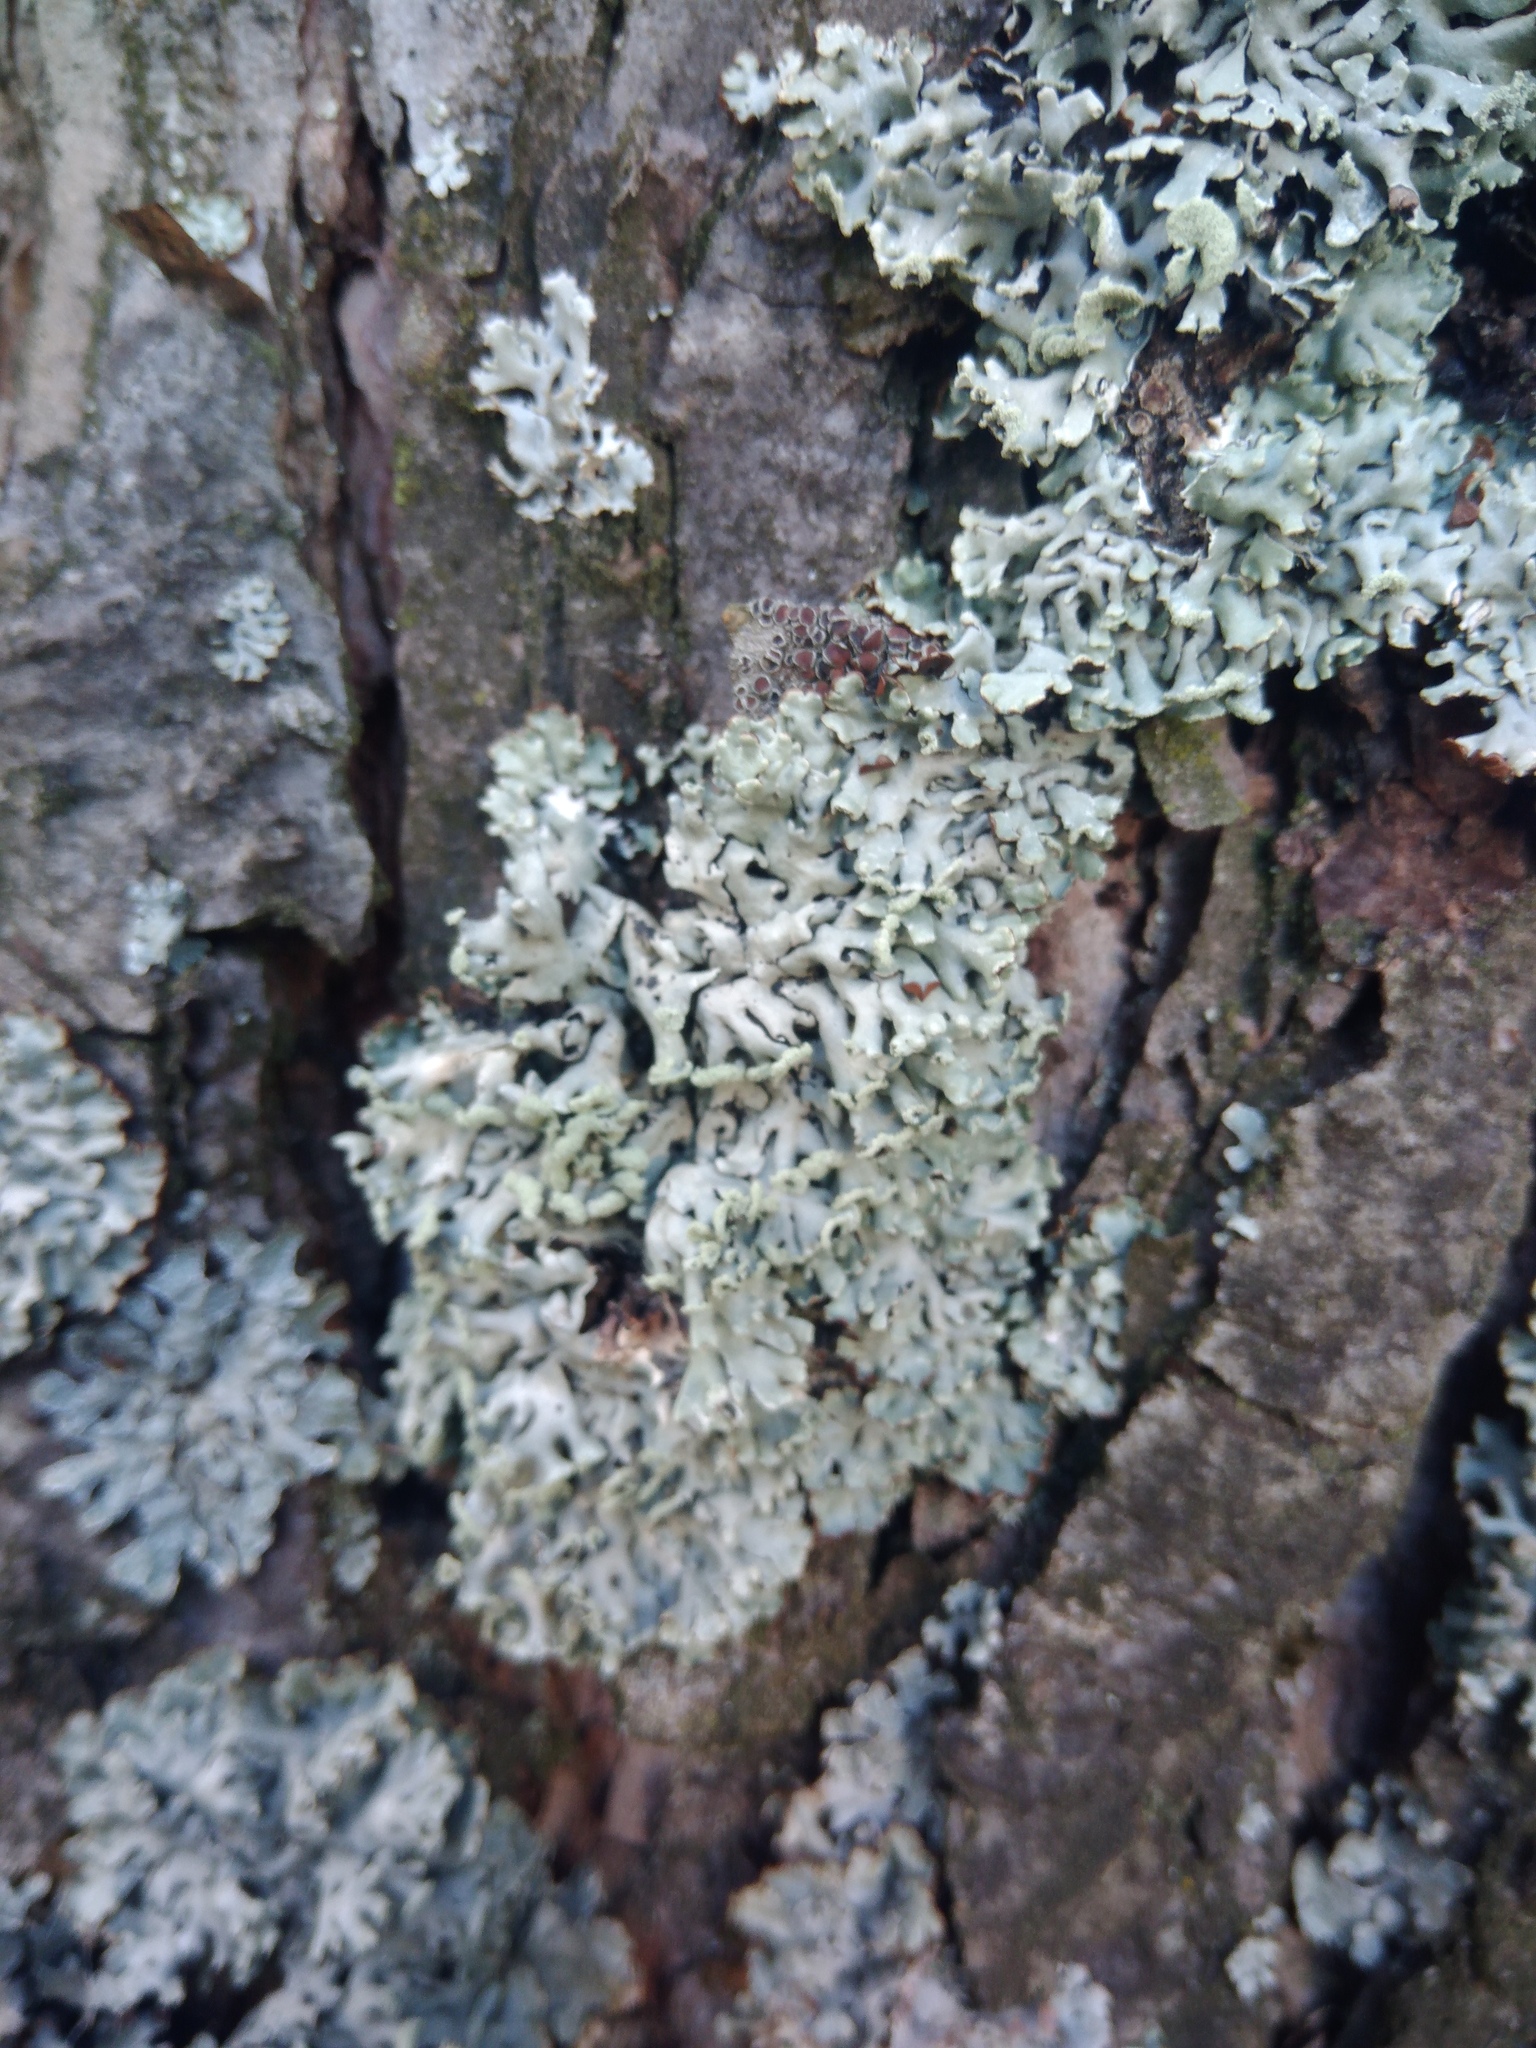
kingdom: Fungi
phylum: Ascomycota
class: Lecanoromycetes
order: Lecanorales
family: Parmeliaceae
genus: Hypogymnia
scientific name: Hypogymnia physodes
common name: Dark crottle
